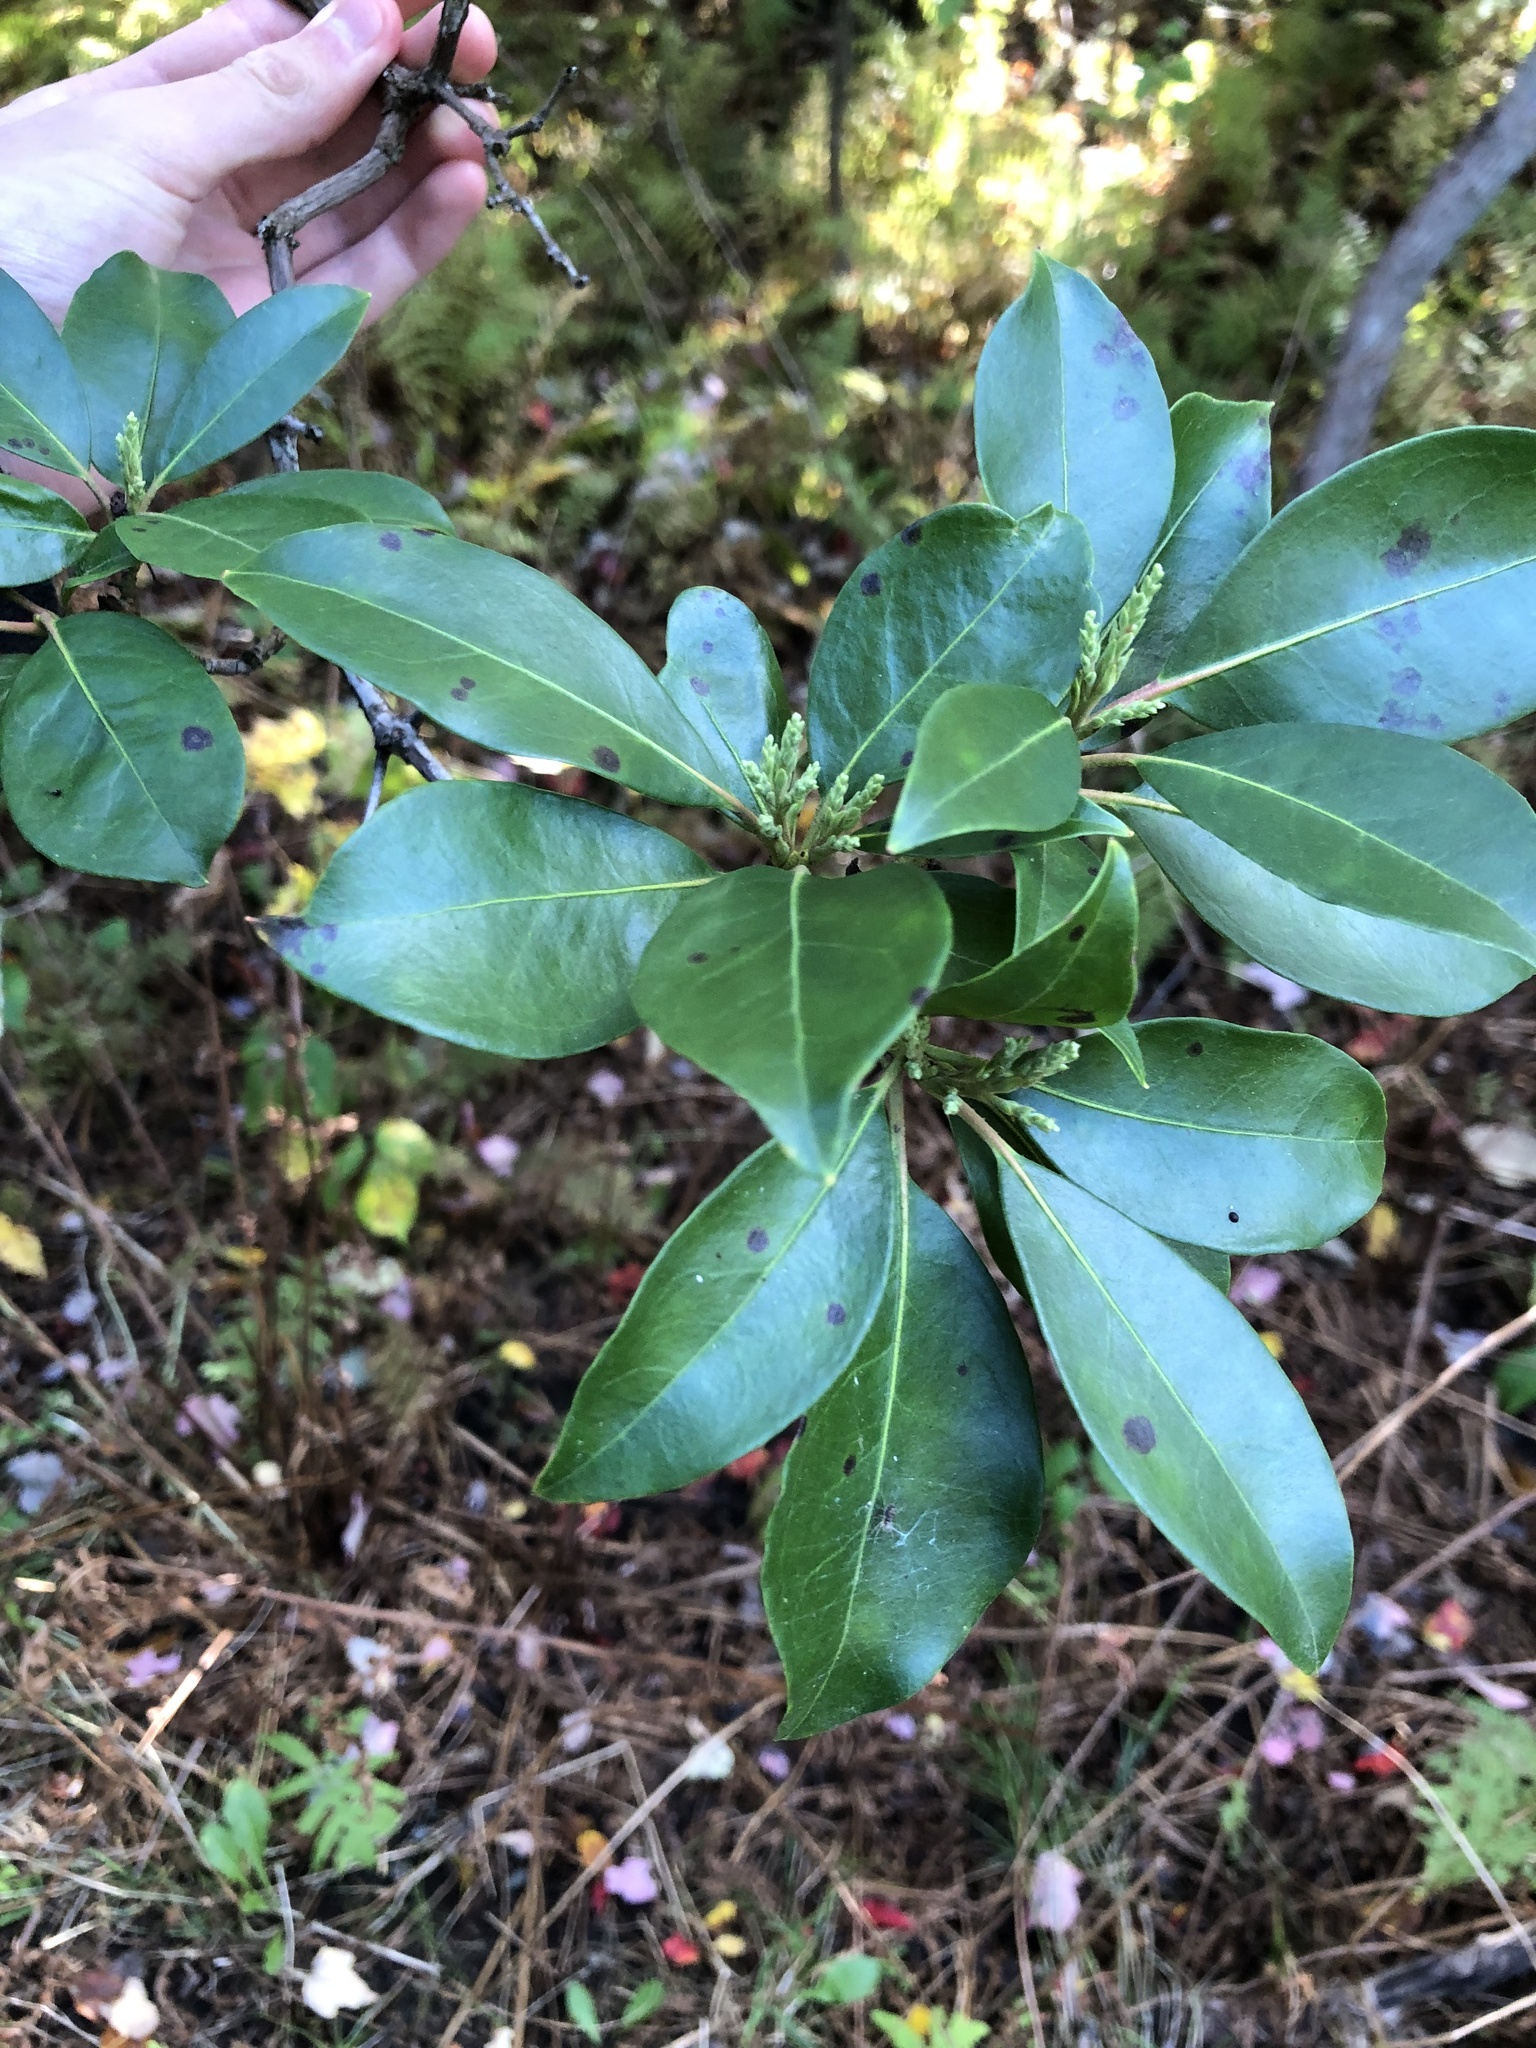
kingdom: Plantae
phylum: Tracheophyta
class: Magnoliopsida
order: Ericales
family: Ericaceae
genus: Kalmia
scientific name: Kalmia latifolia
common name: Mountain-laurel
